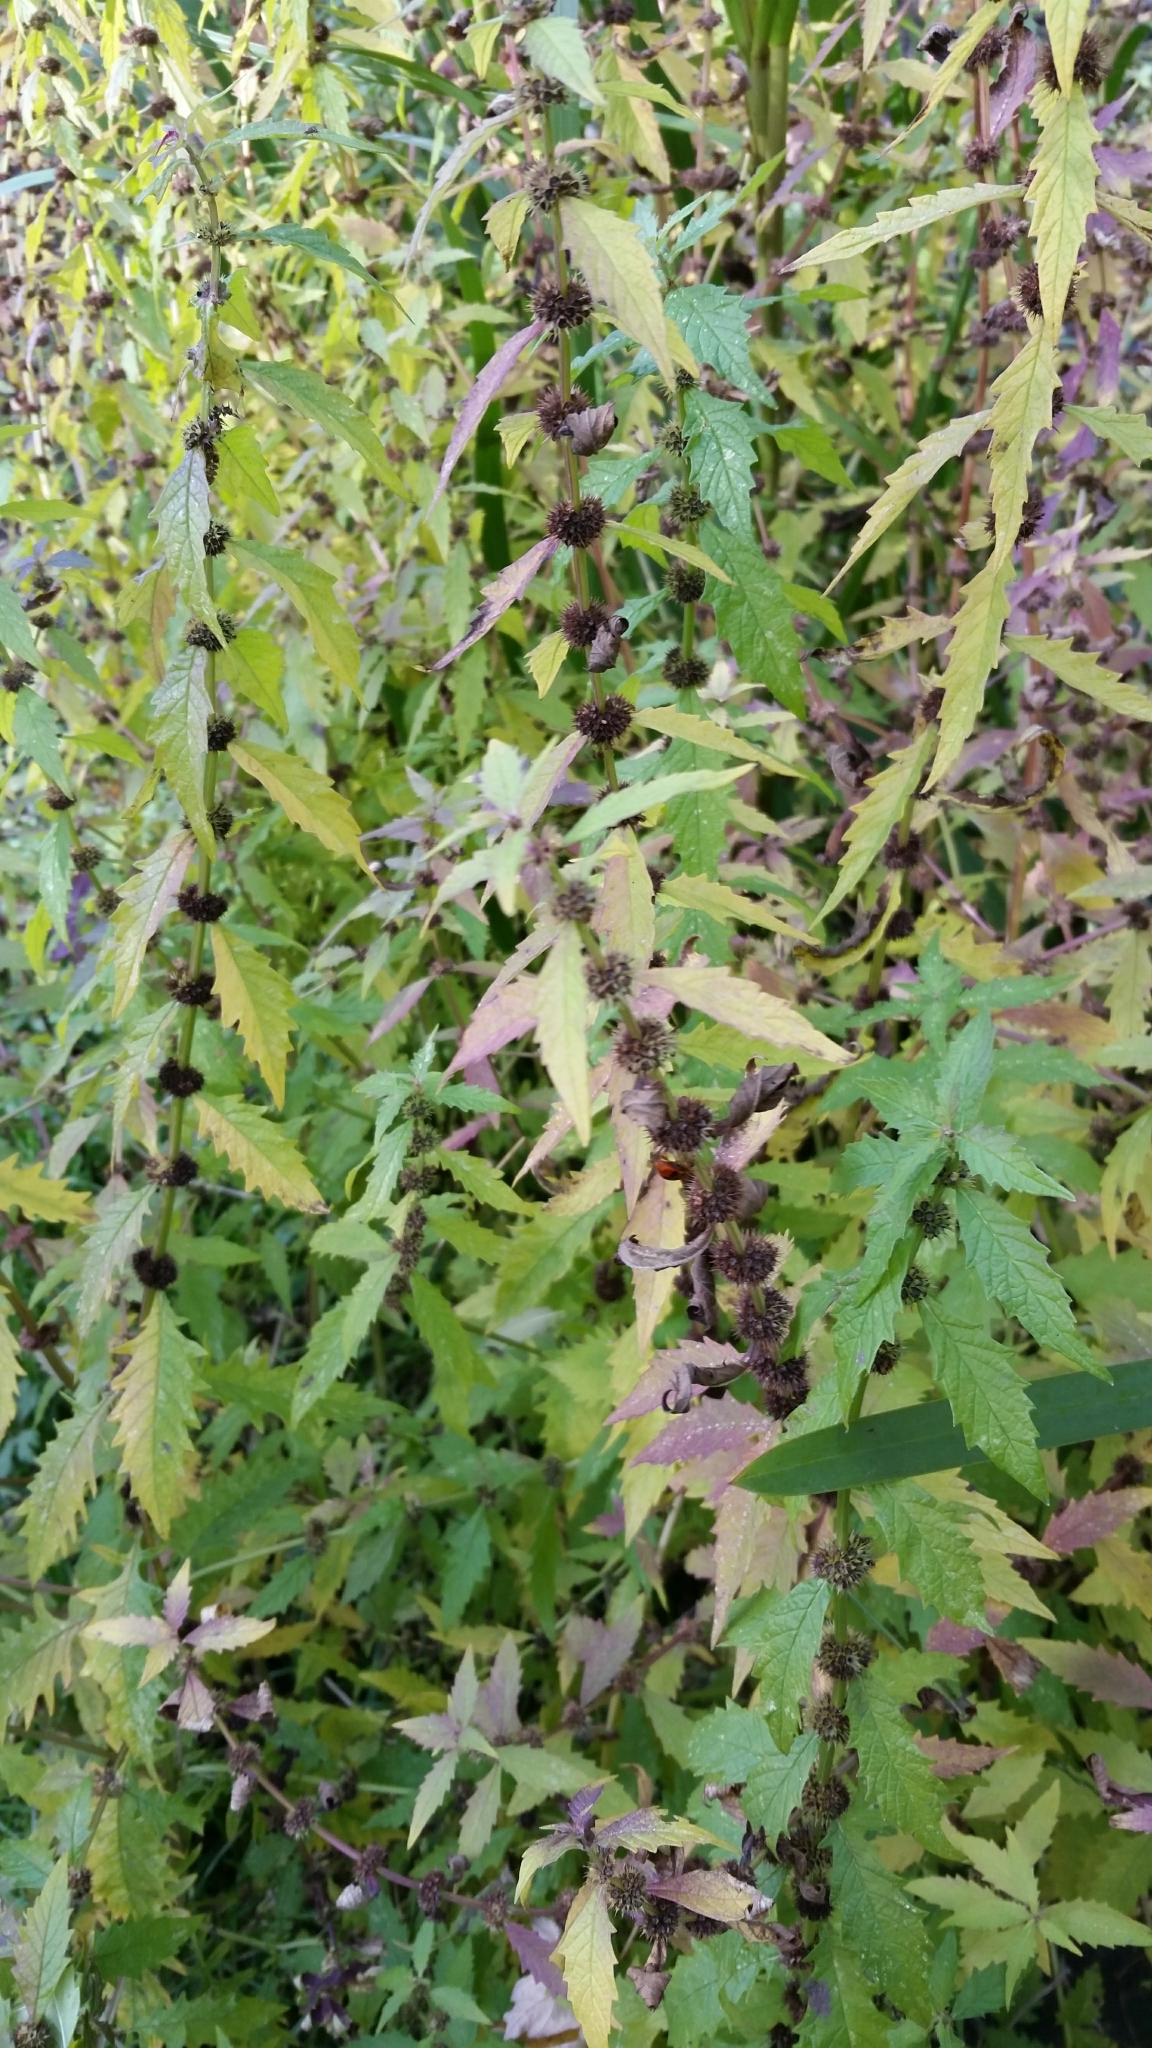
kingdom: Plantae
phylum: Tracheophyta
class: Magnoliopsida
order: Lamiales
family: Lamiaceae
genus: Lycopus
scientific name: Lycopus europaeus
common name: European bugleweed
